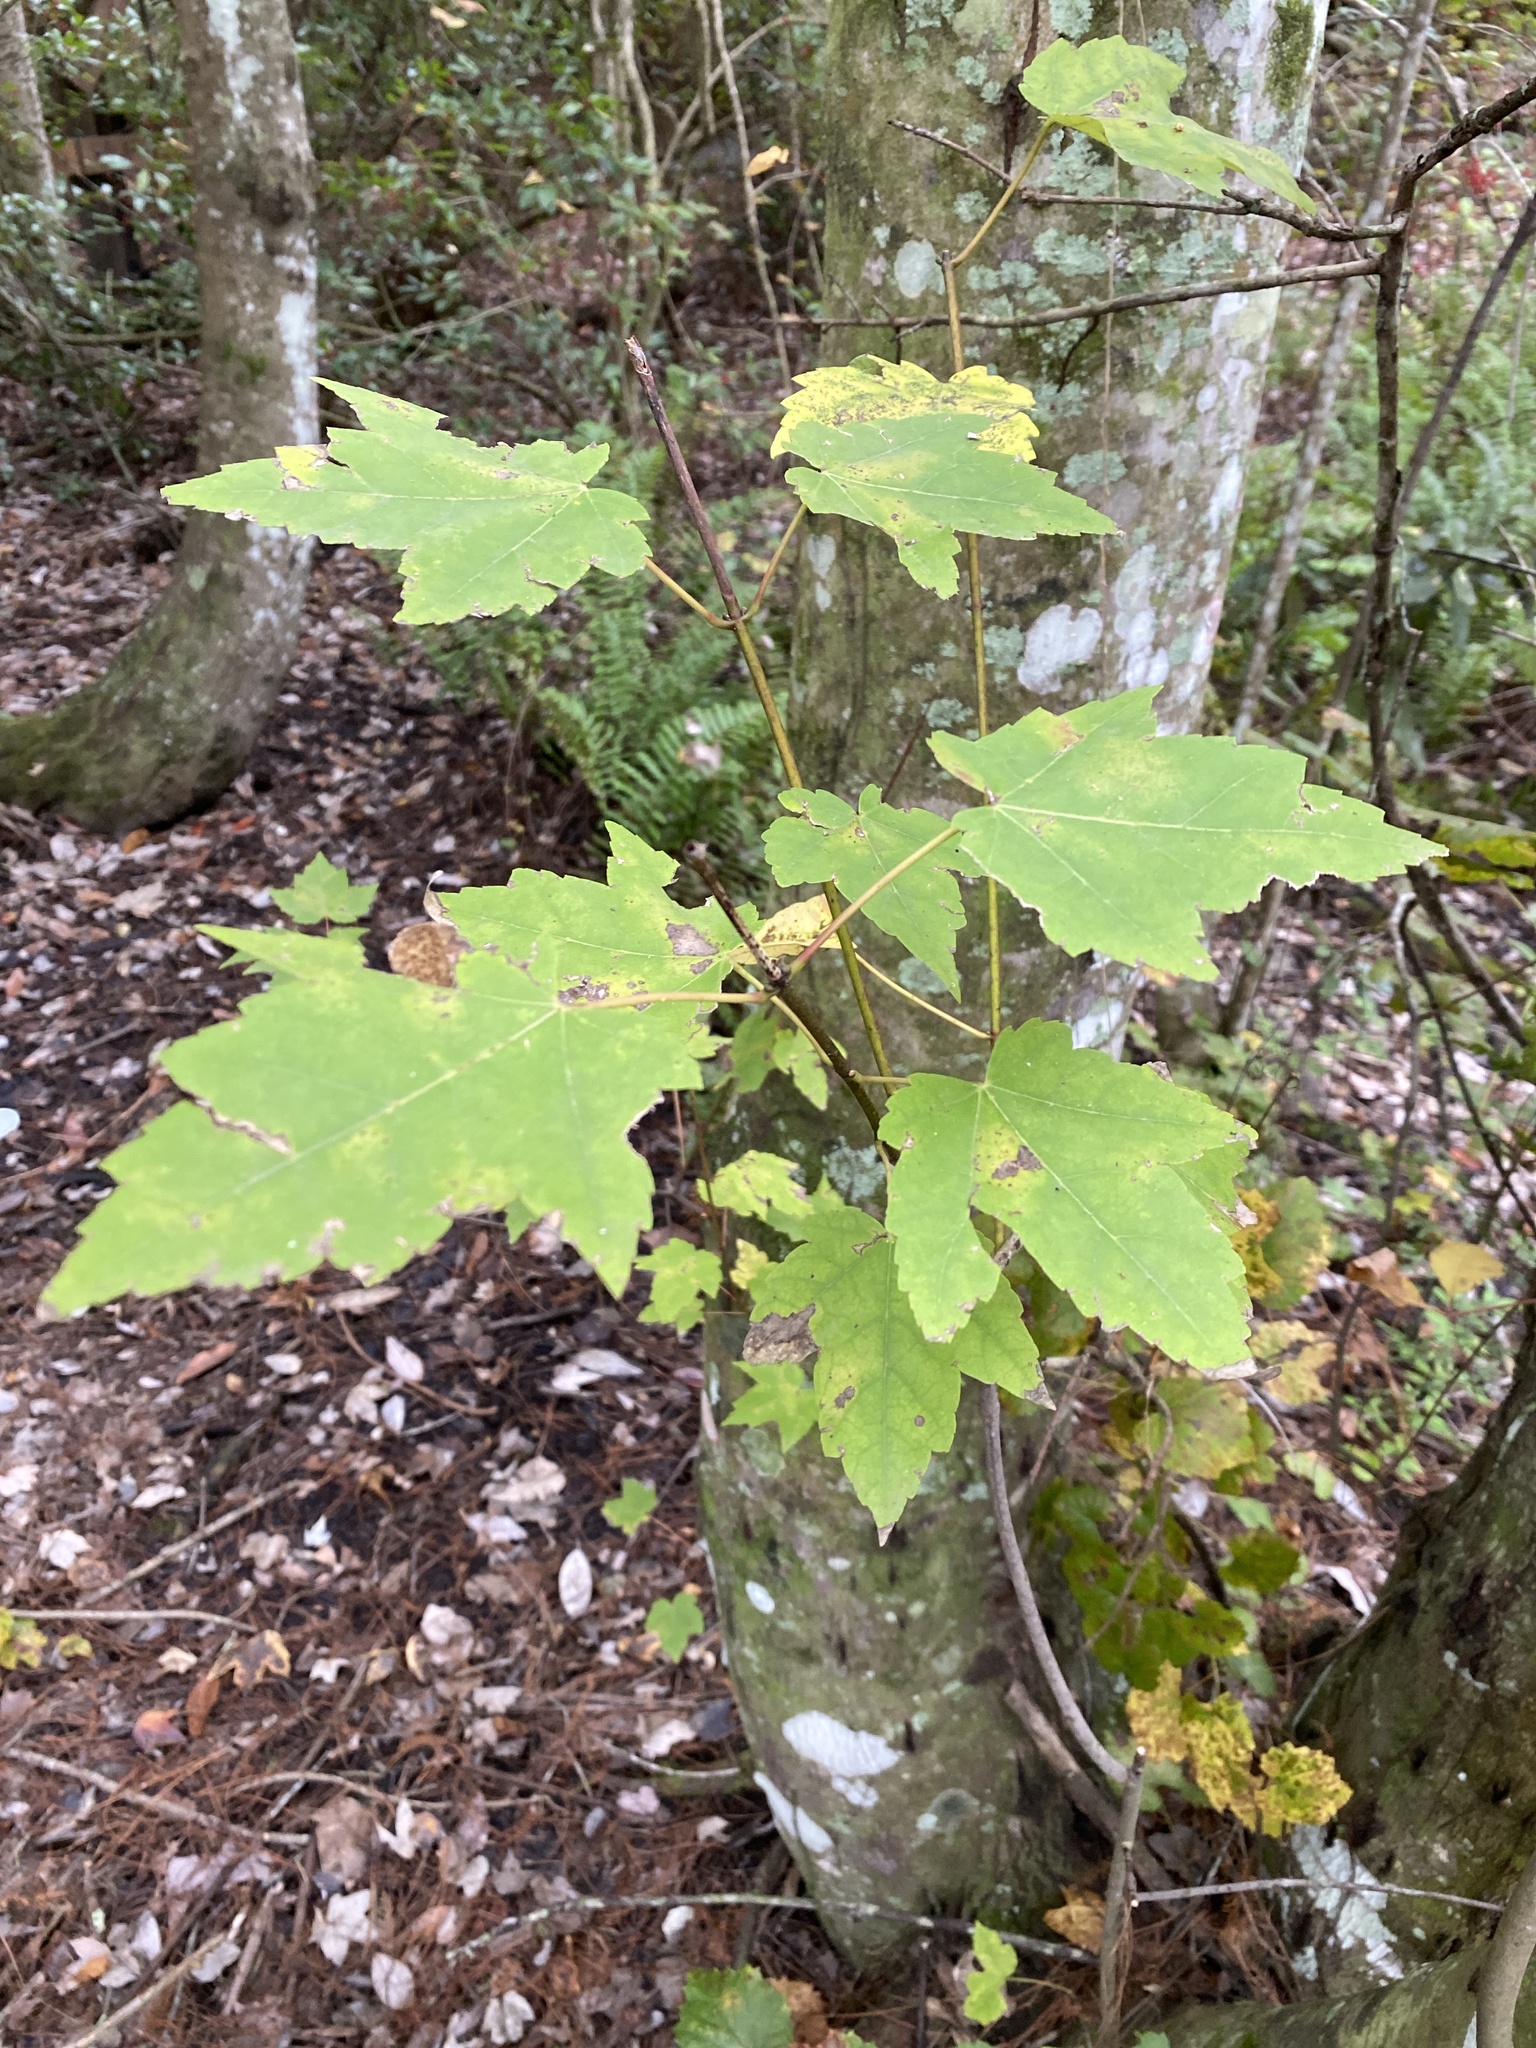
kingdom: Plantae
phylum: Tracheophyta
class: Magnoliopsida
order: Sapindales
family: Sapindaceae
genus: Acer
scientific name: Acer rubrum
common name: Red maple
